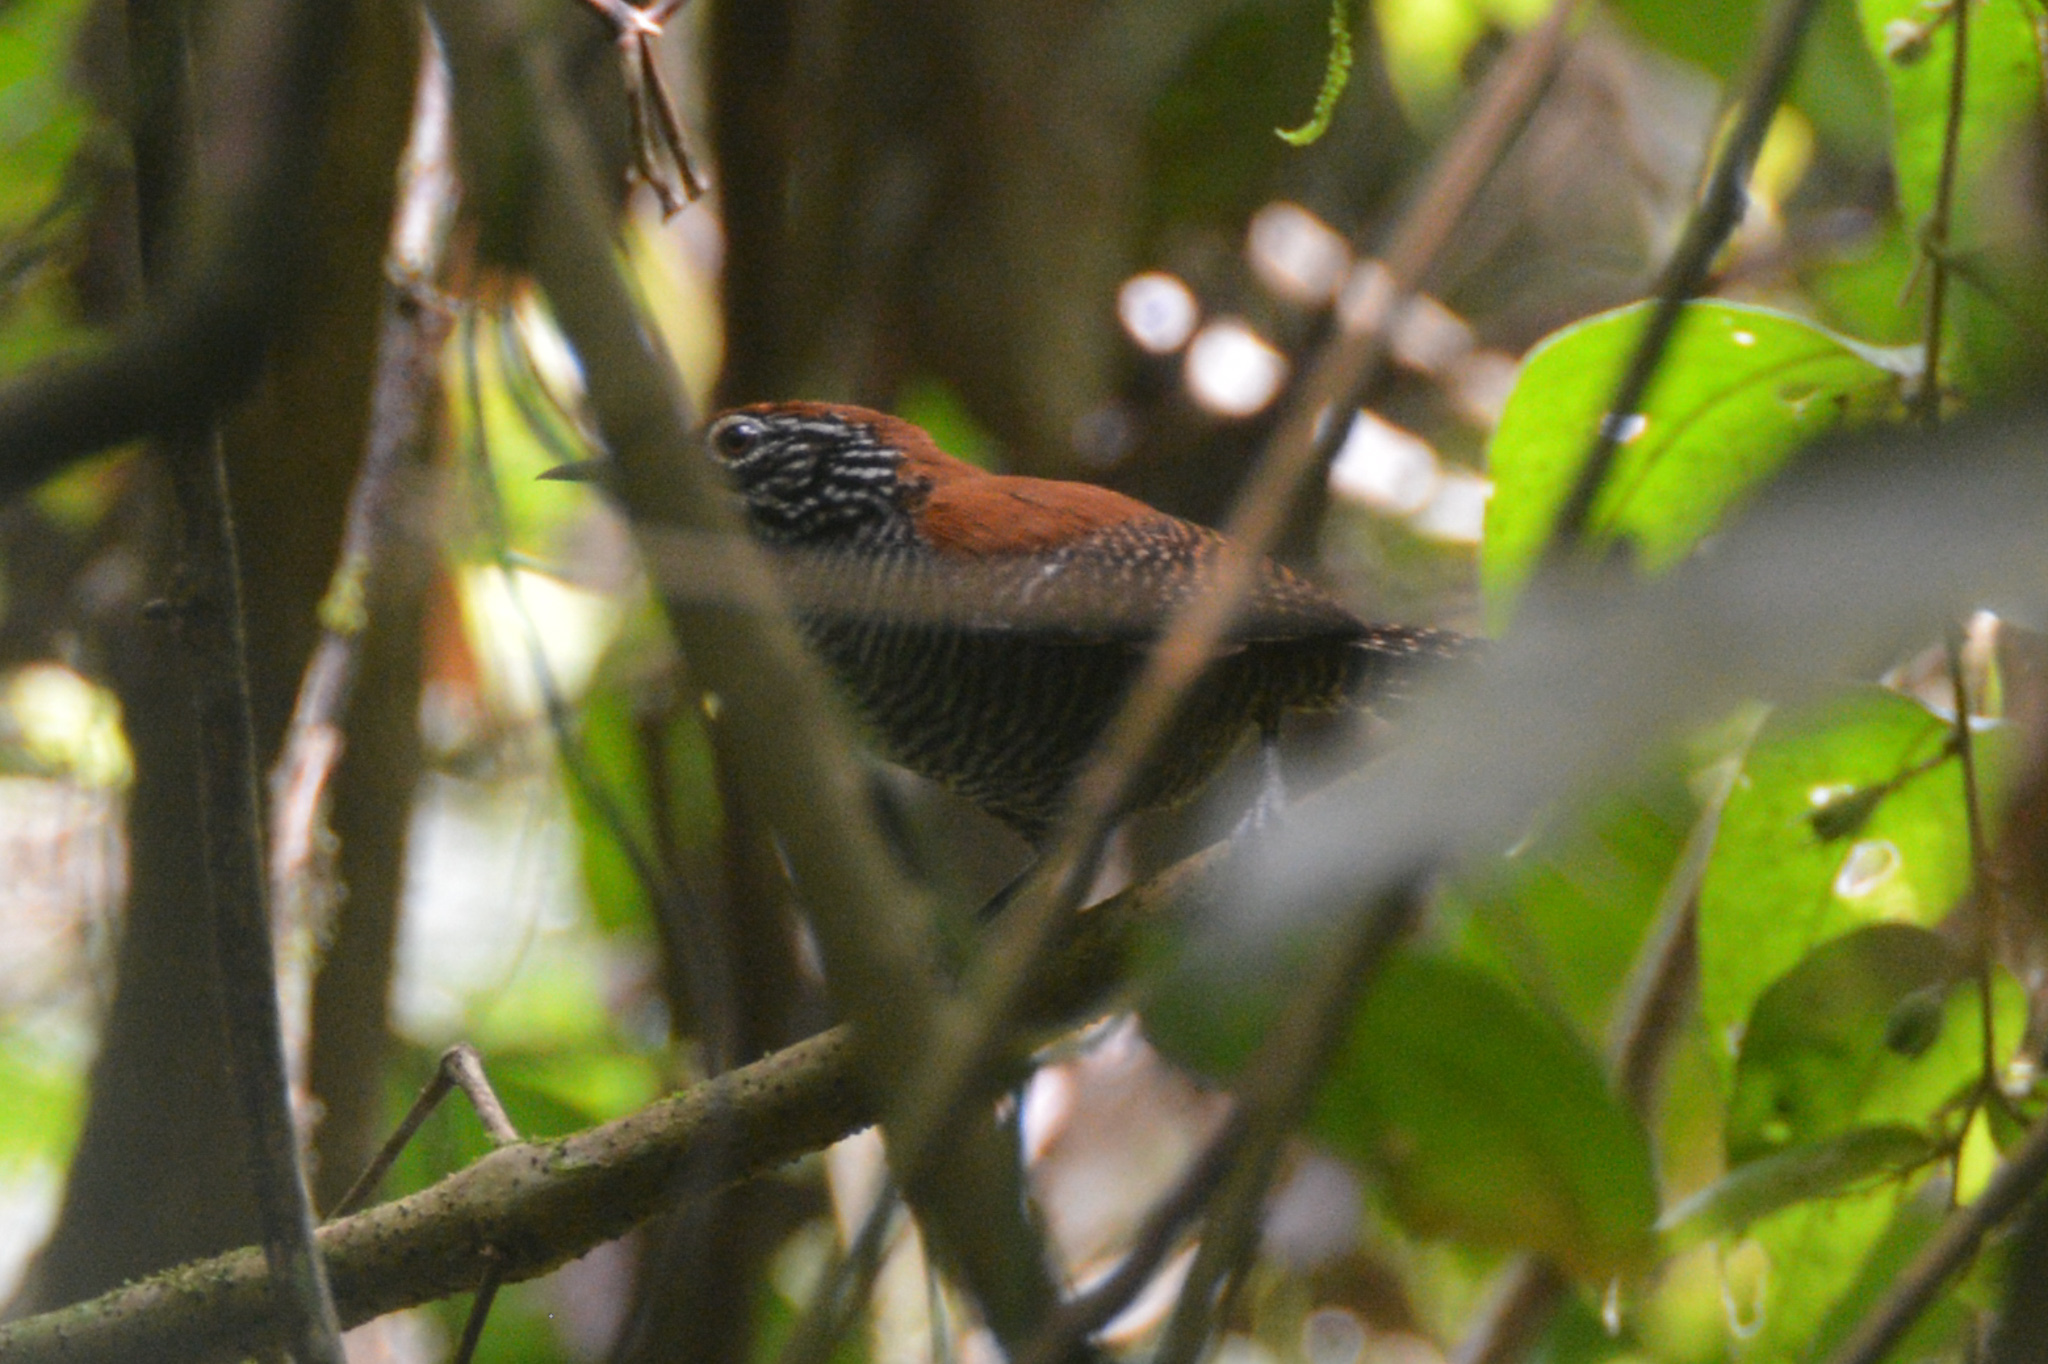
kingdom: Animalia
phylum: Chordata
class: Aves
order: Passeriformes
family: Troglodytidae
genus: Cantorchilus
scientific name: Cantorchilus semibadius
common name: Riverside wren
